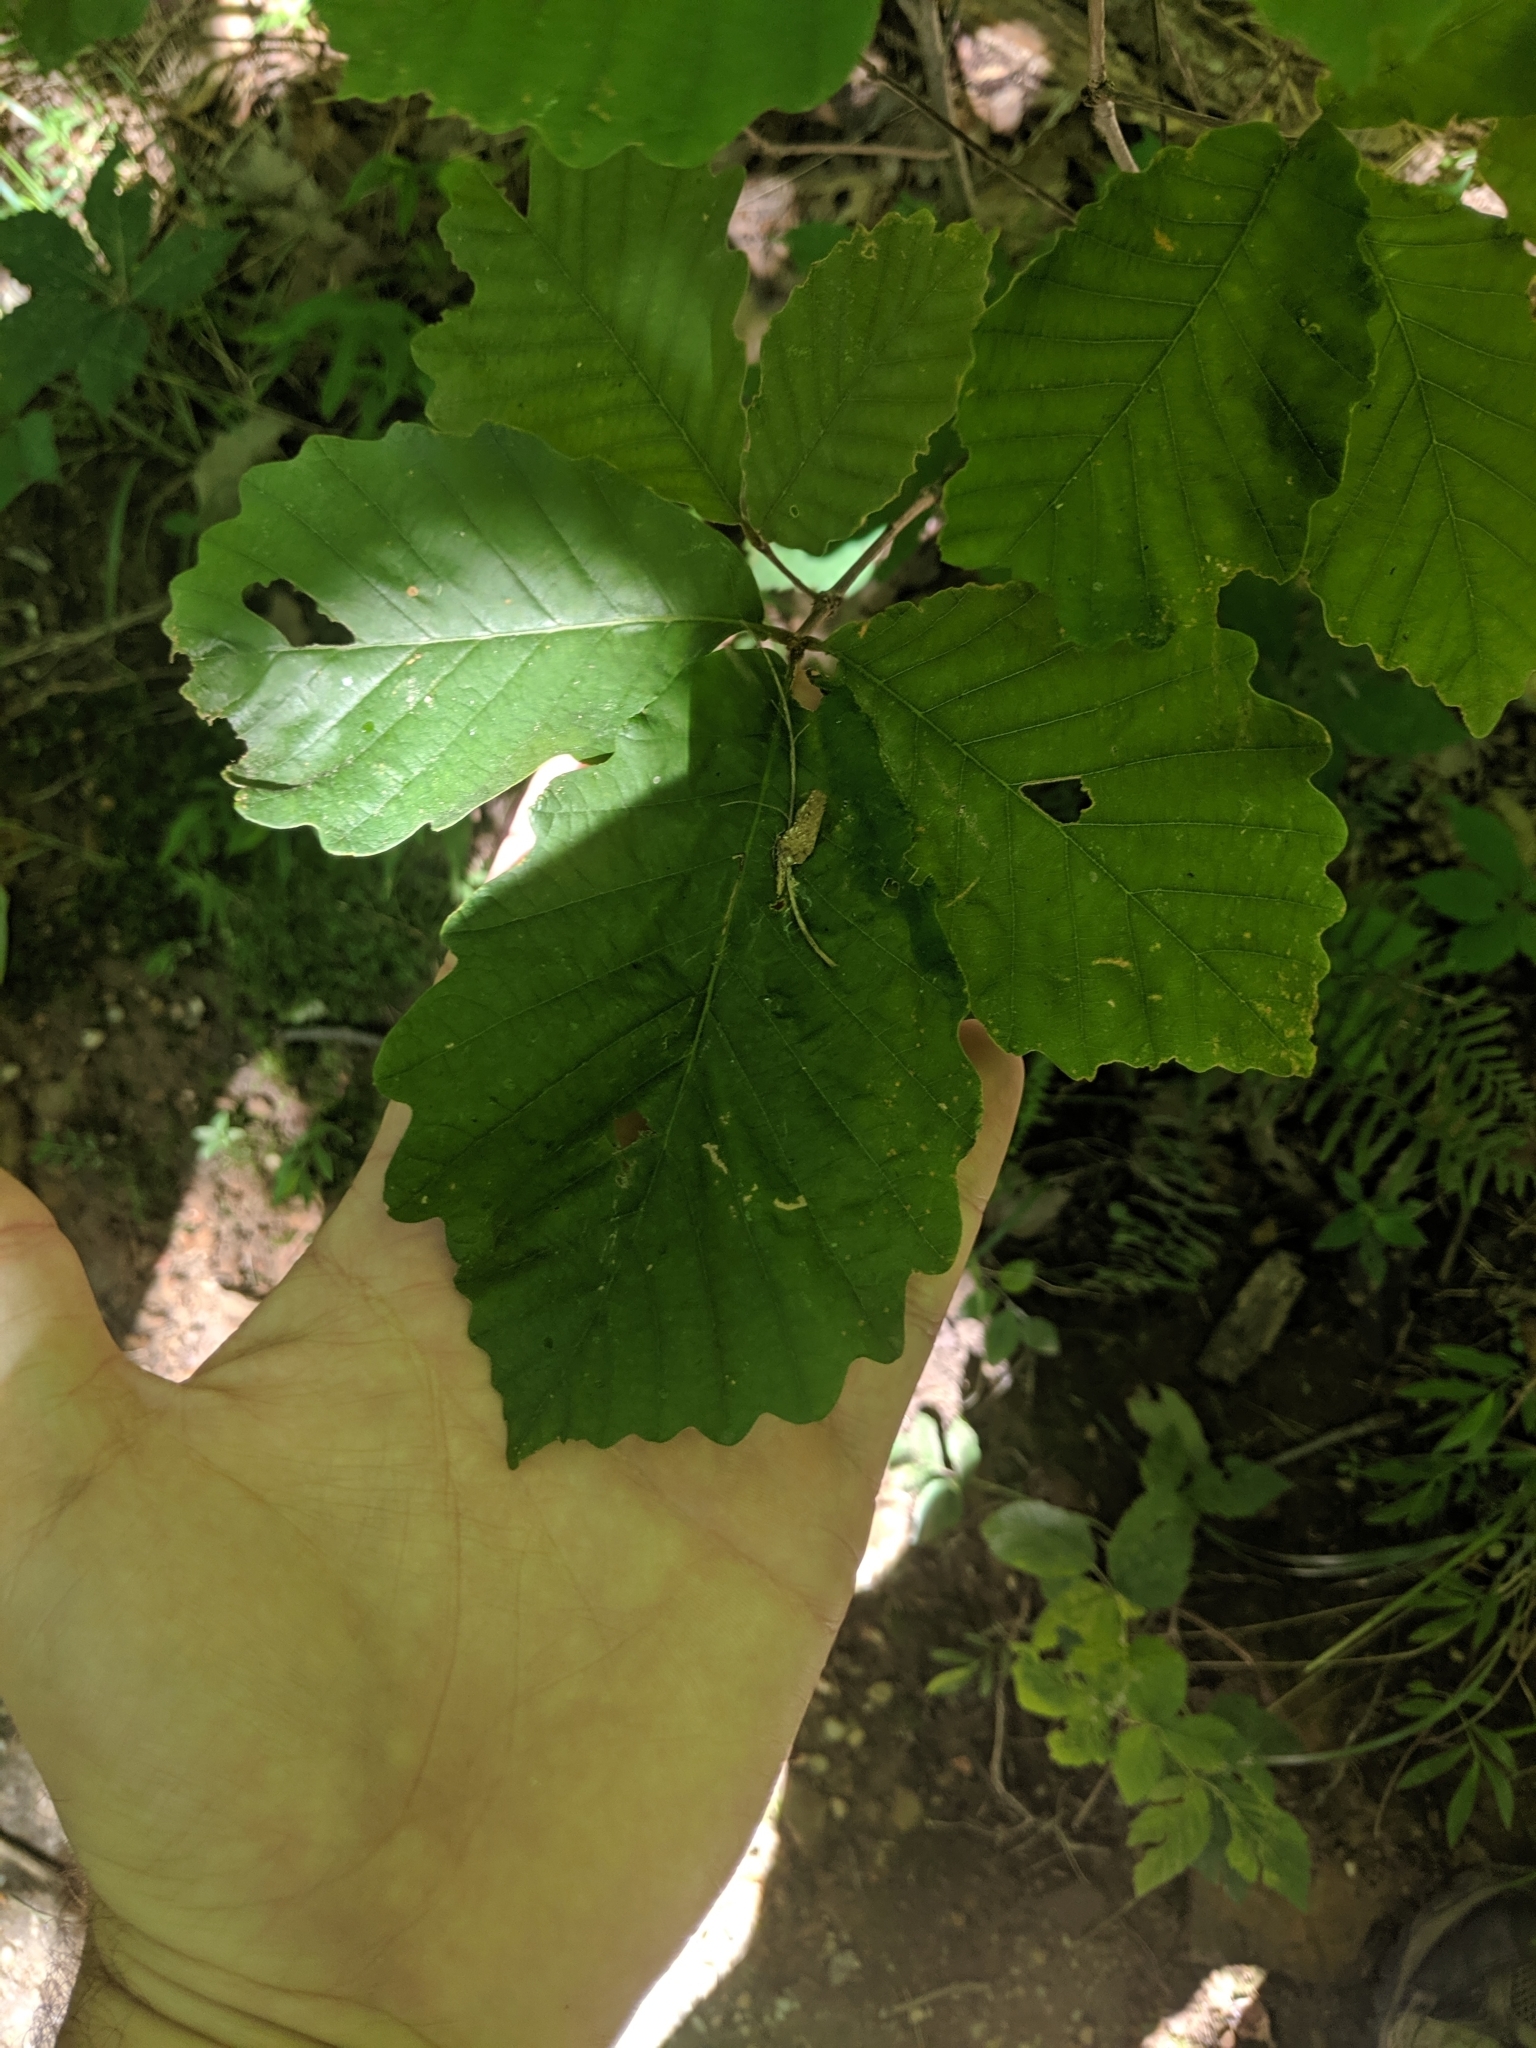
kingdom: Plantae
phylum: Tracheophyta
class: Magnoliopsida
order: Fagales
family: Fagaceae
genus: Quercus
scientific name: Quercus montana
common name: Chestnut oak
